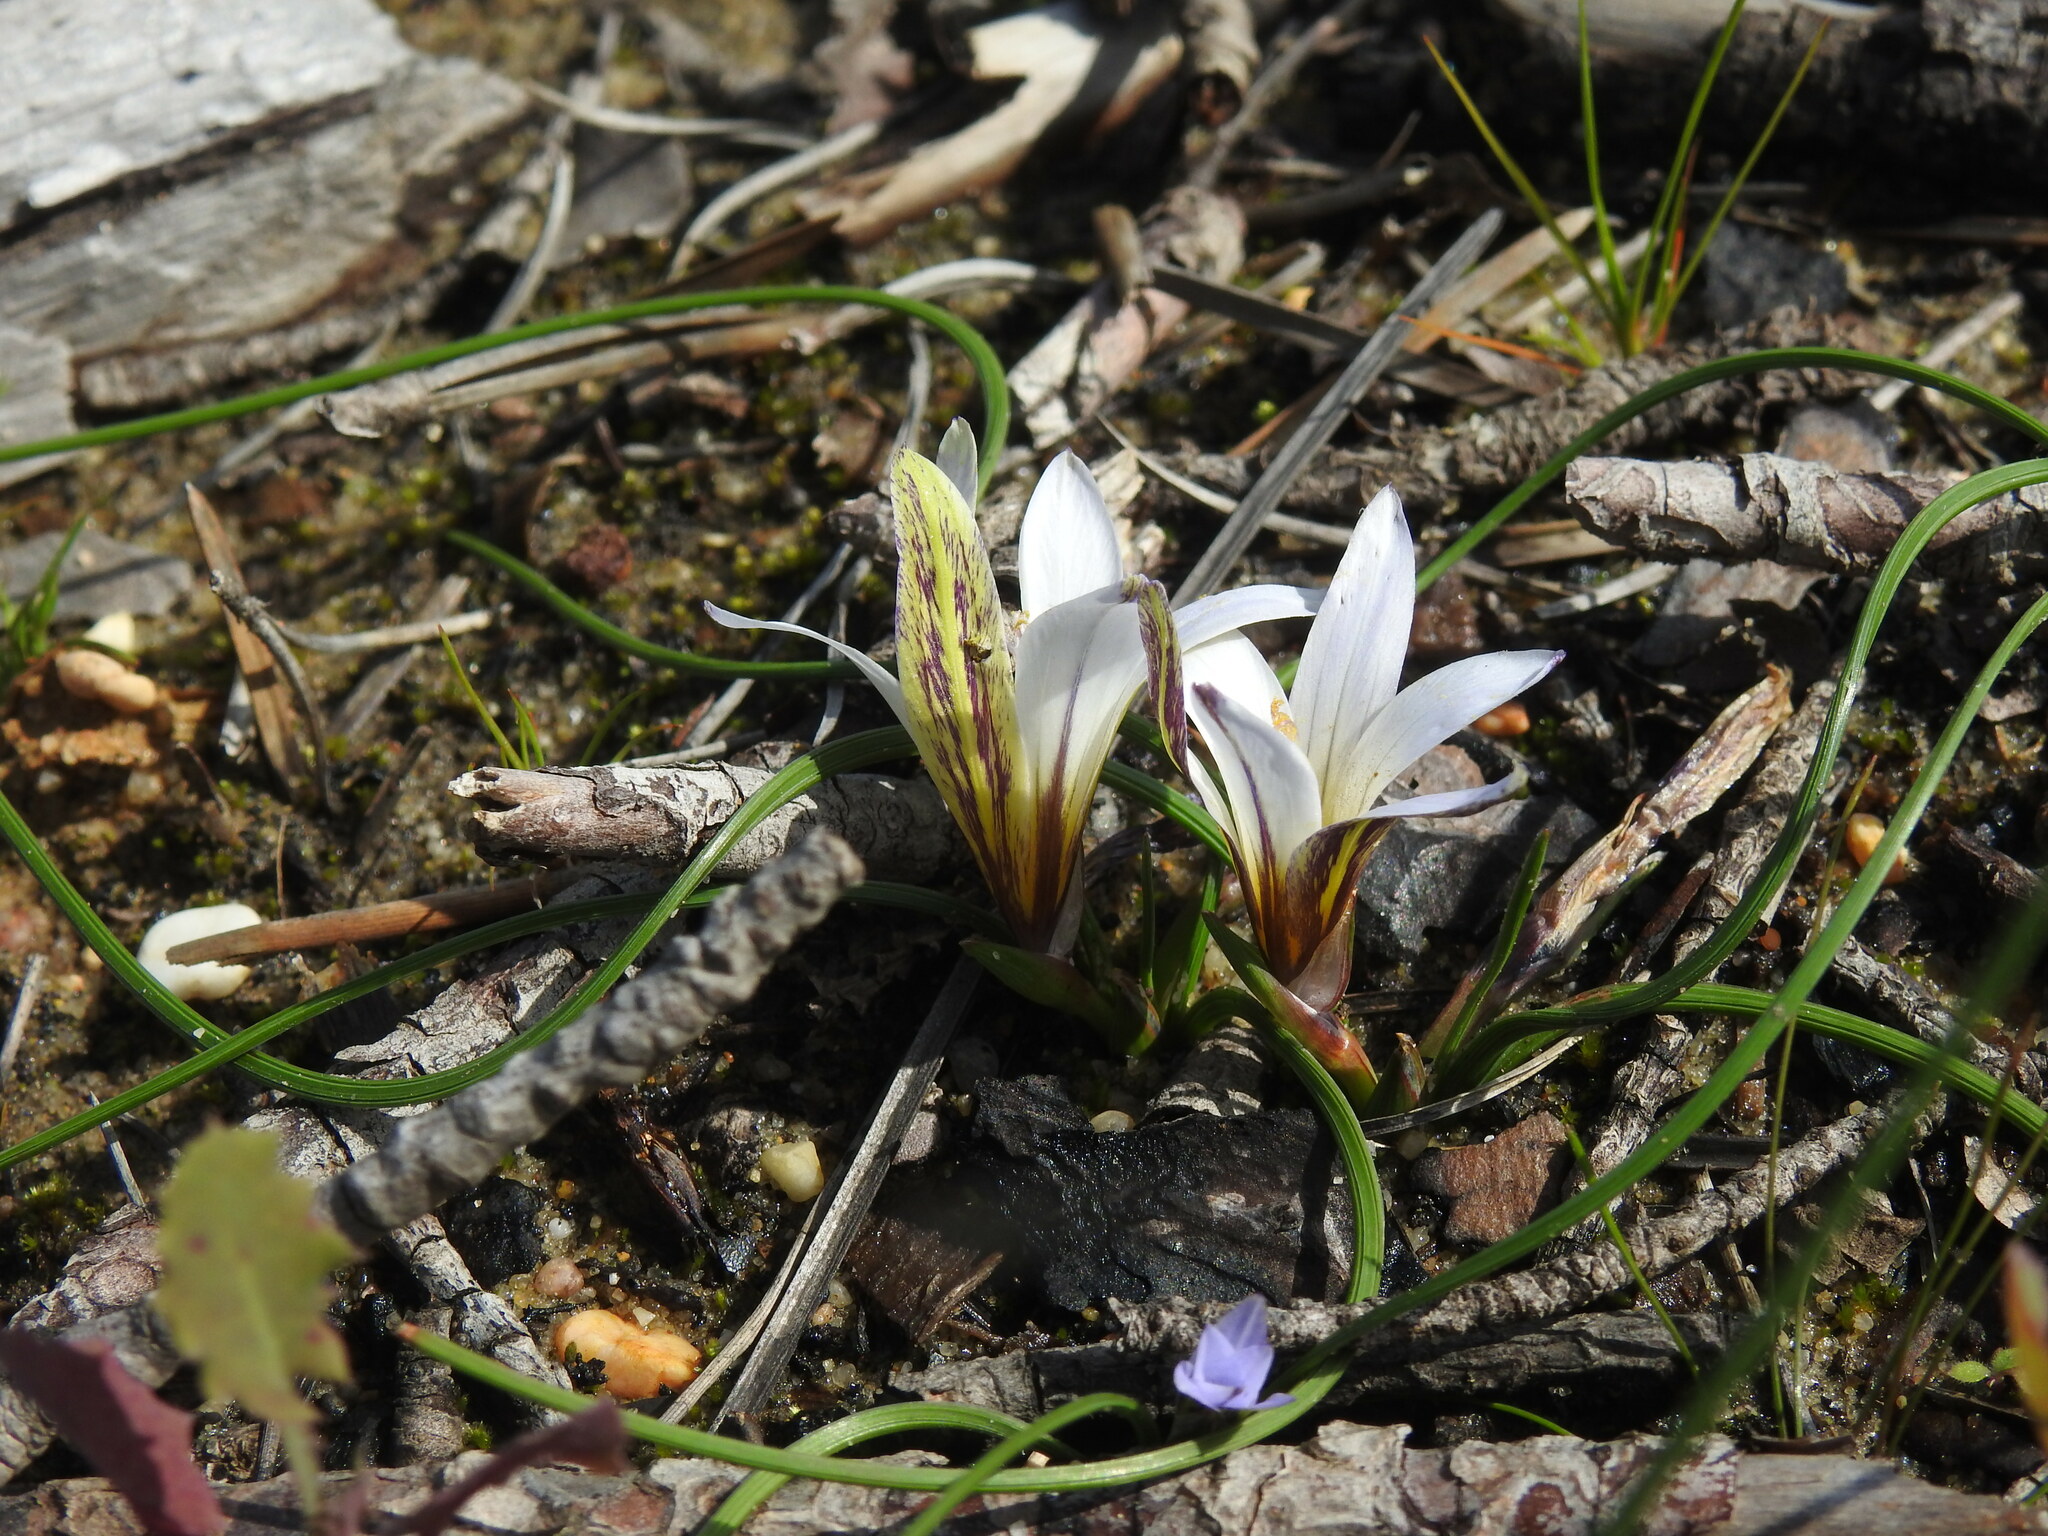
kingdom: Plantae
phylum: Tracheophyta
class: Liliopsida
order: Asparagales
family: Iridaceae
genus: Romulea
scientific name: Romulea bulbocodium
